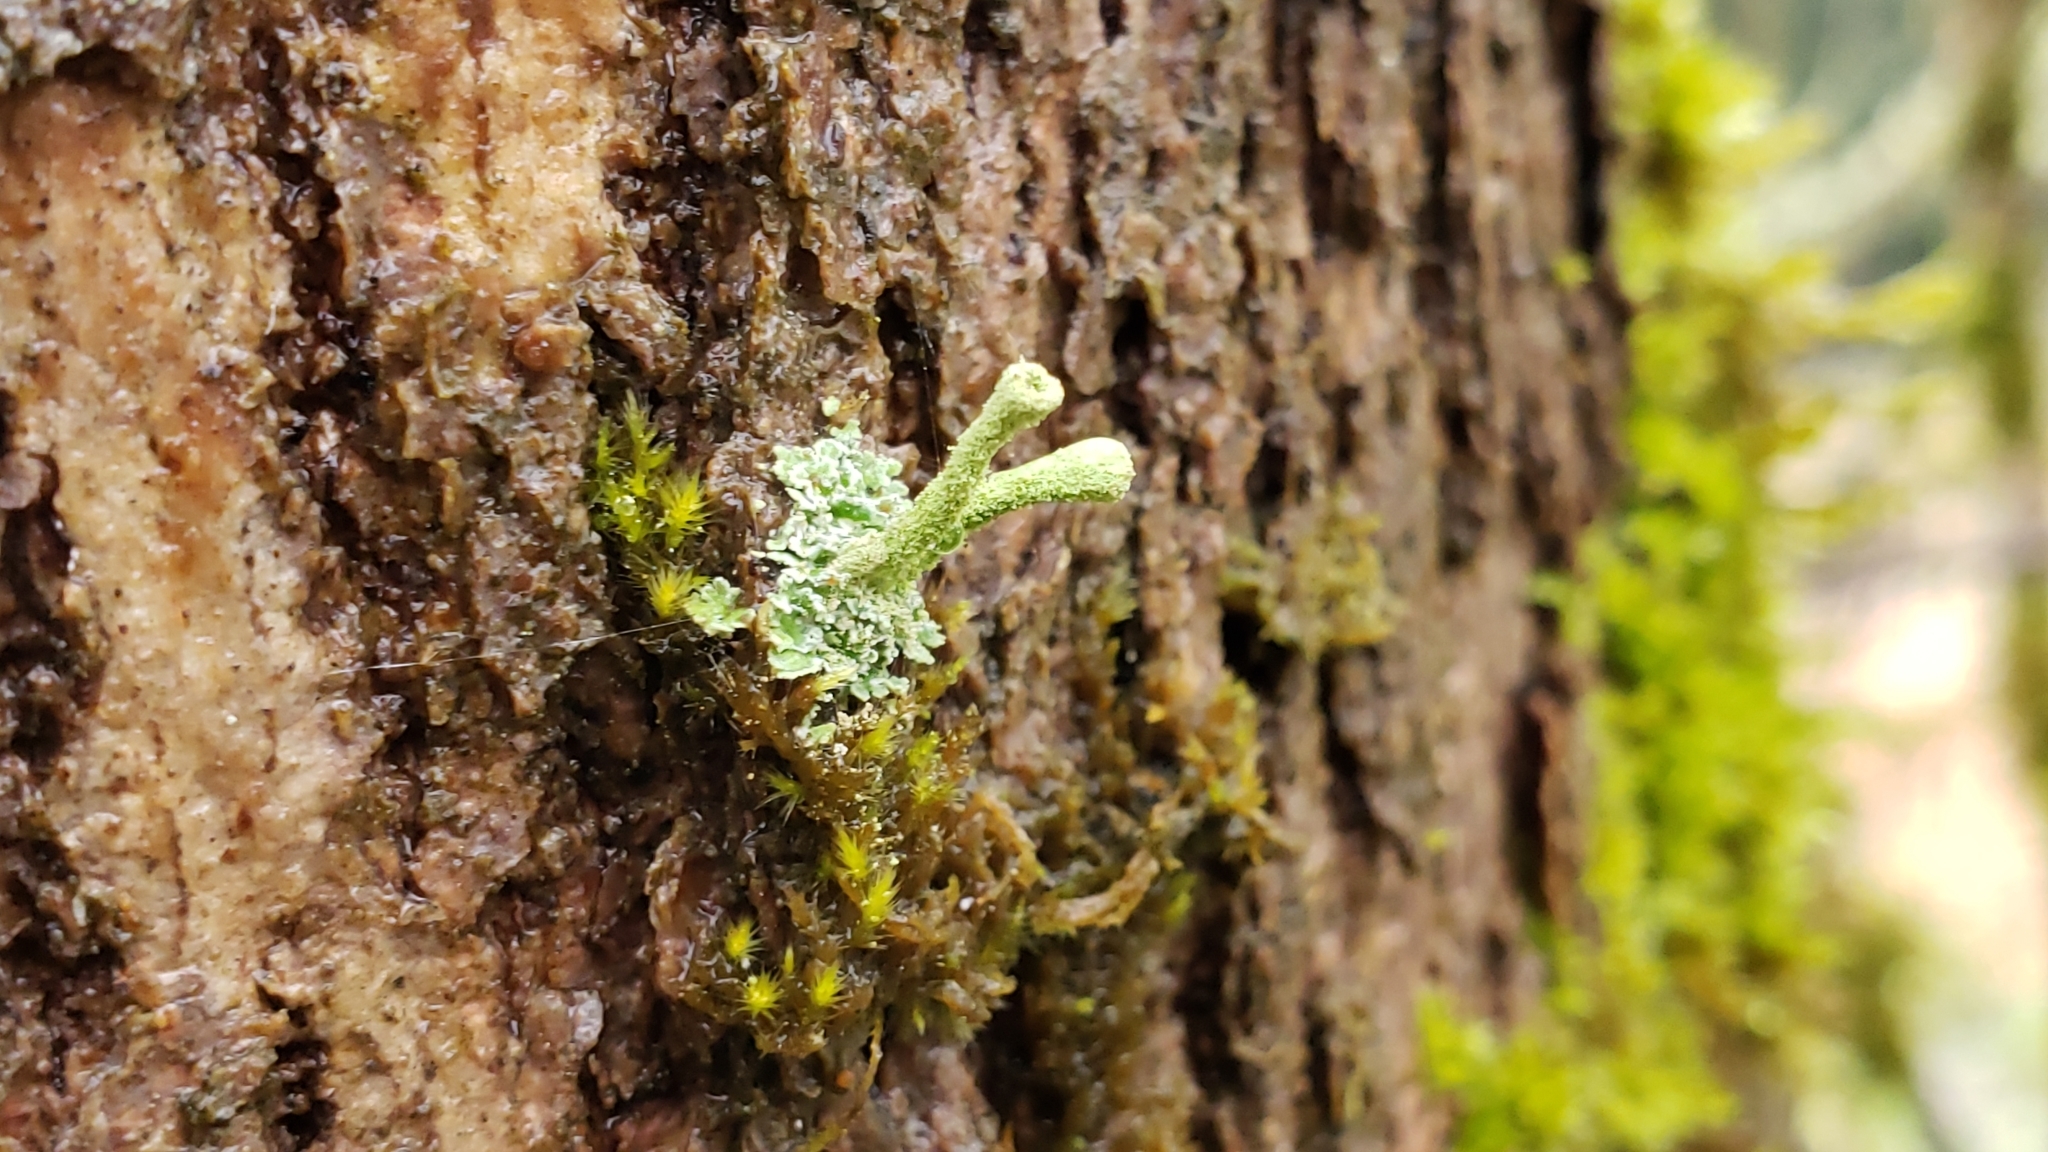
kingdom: Fungi
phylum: Ascomycota
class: Lecanoromycetes
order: Lecanorales
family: Cladoniaceae
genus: Cladonia
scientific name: Cladonia fimbriata
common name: Powdered trumpet lichen
